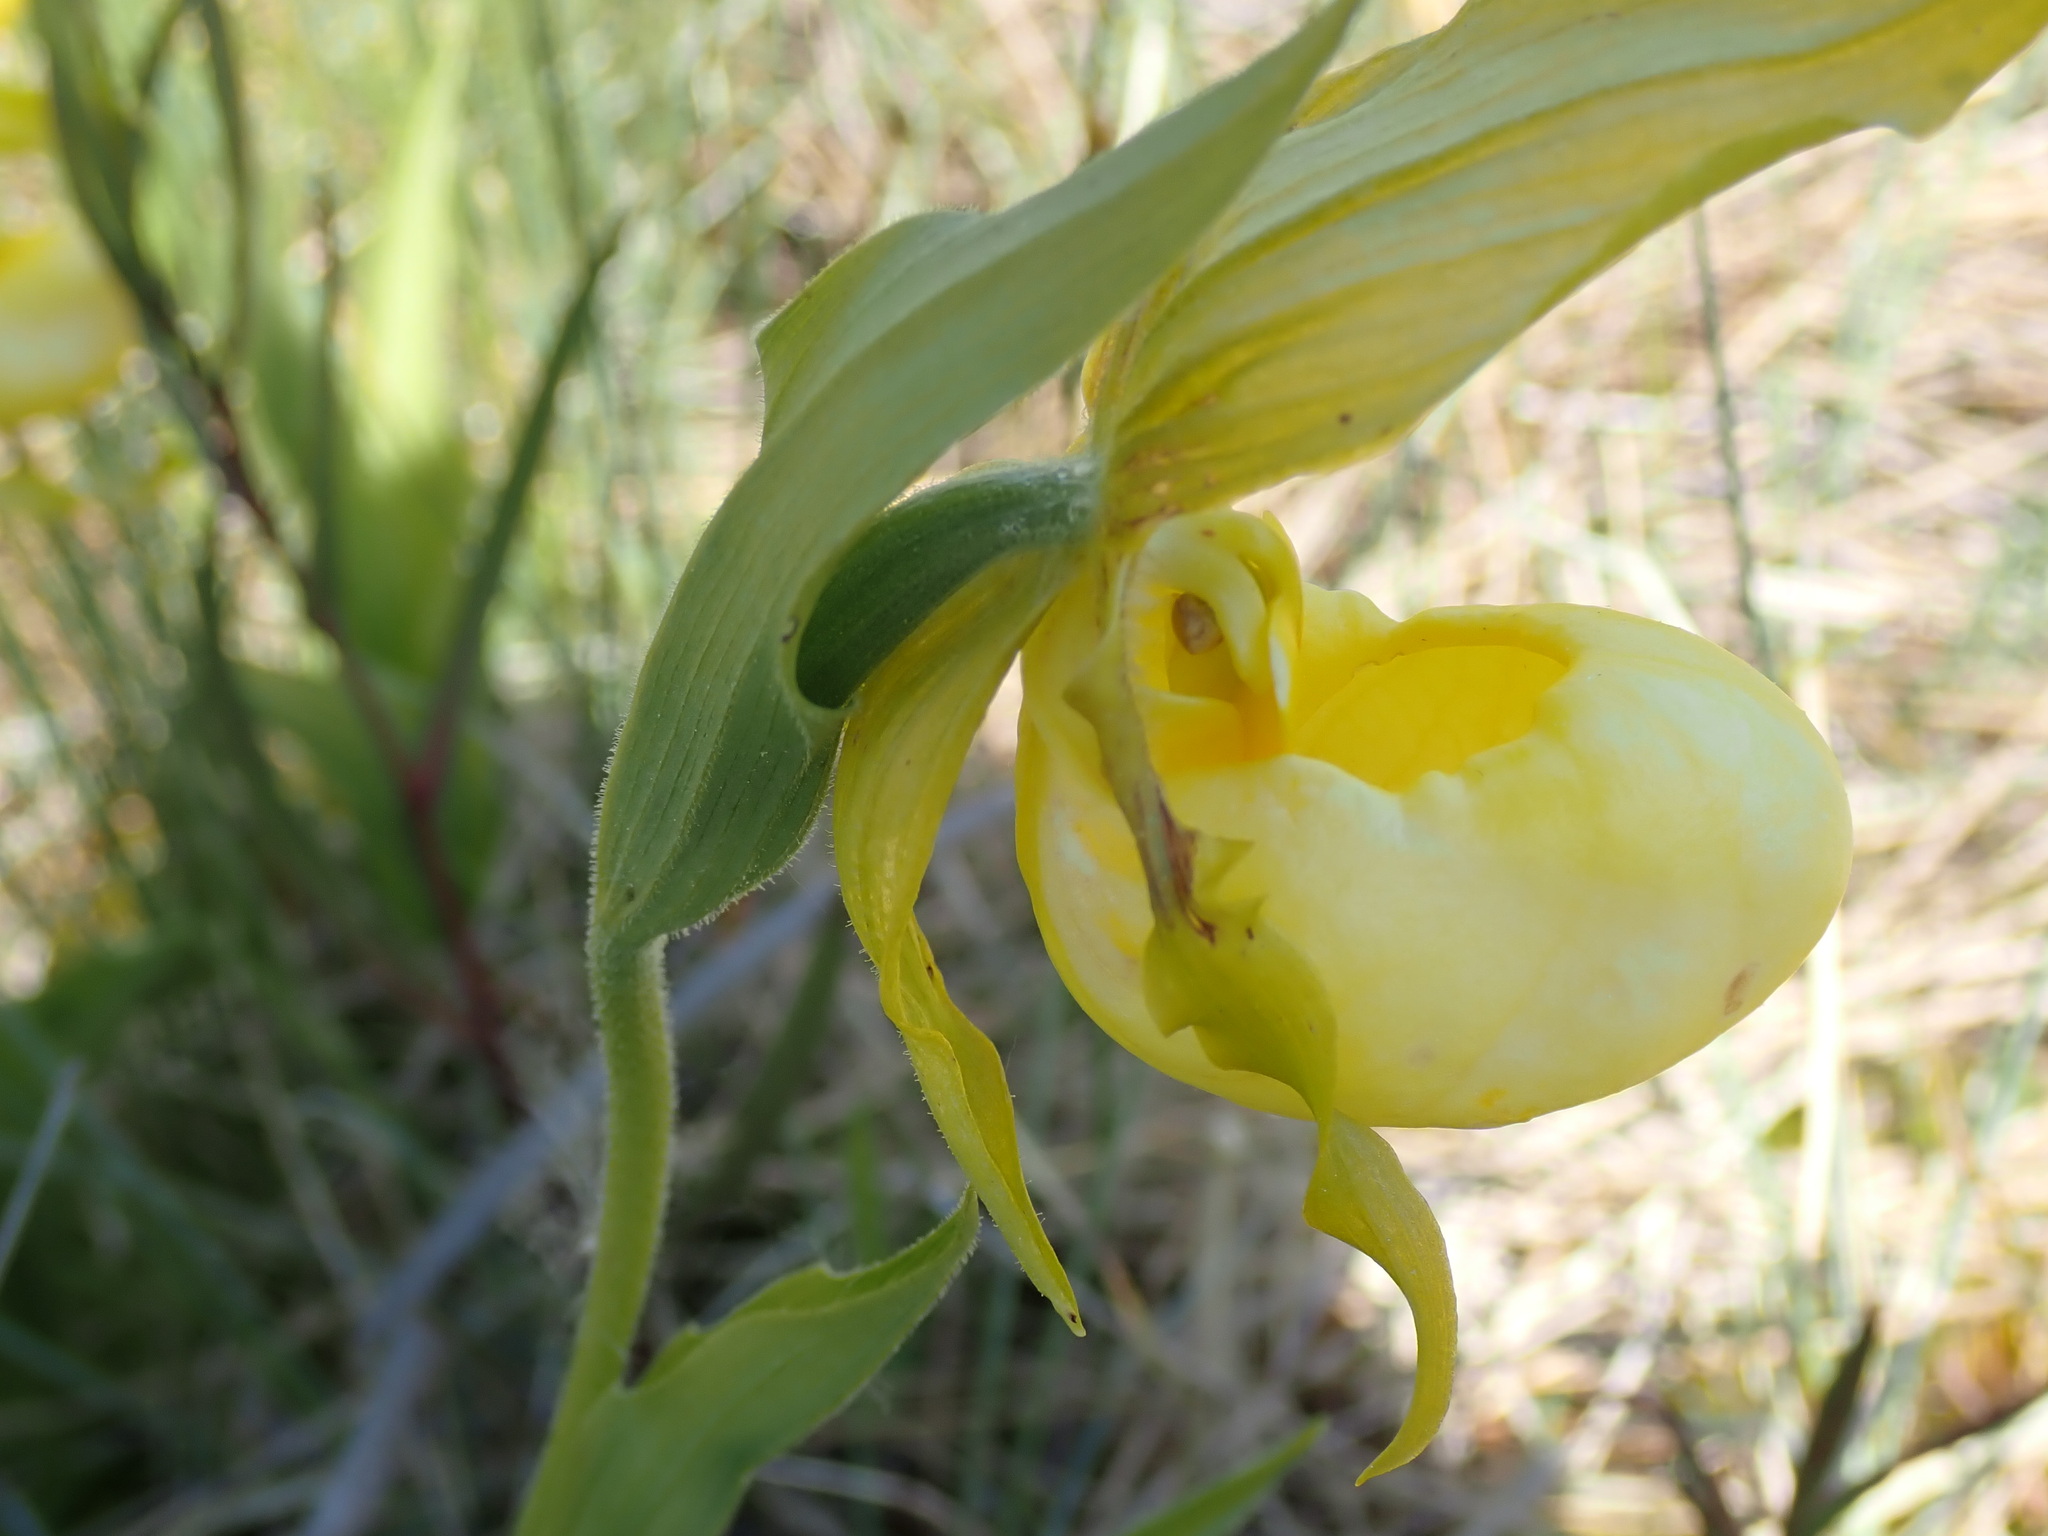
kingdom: Plantae
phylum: Tracheophyta
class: Liliopsida
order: Asparagales
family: Orchidaceae
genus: Cypripedium
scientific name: Cypripedium parviflorum
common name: American yellow lady's-slipper
